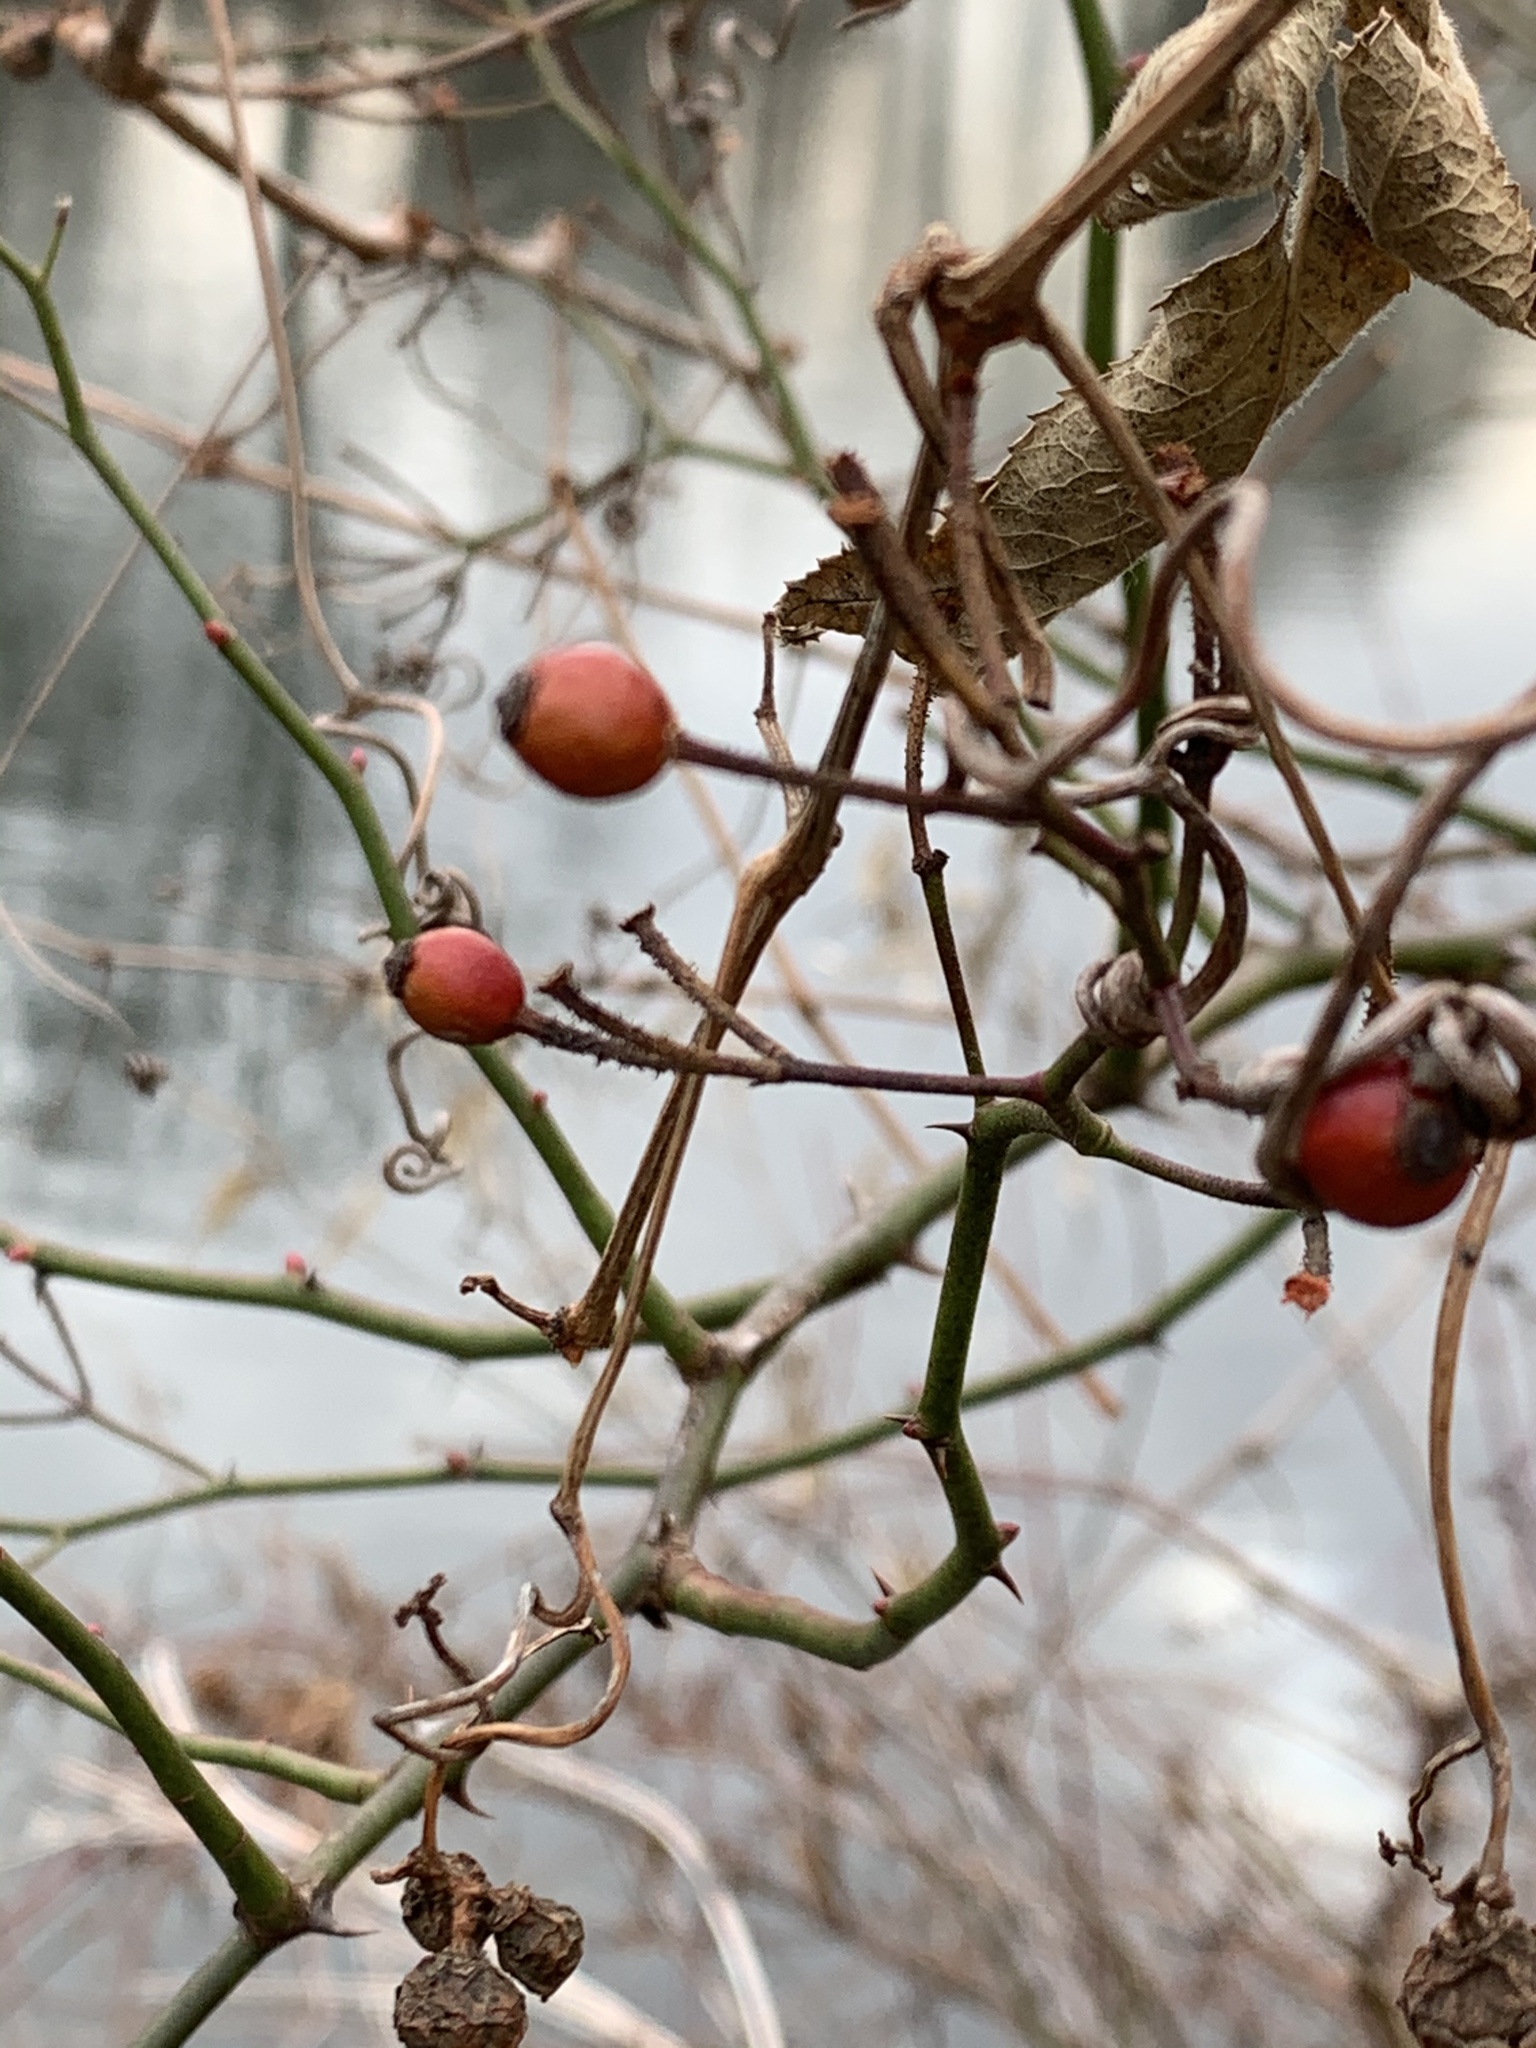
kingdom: Plantae
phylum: Tracheophyta
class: Magnoliopsida
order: Rosales
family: Rosaceae
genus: Rosa
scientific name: Rosa multiflora
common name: Multiflora rose
